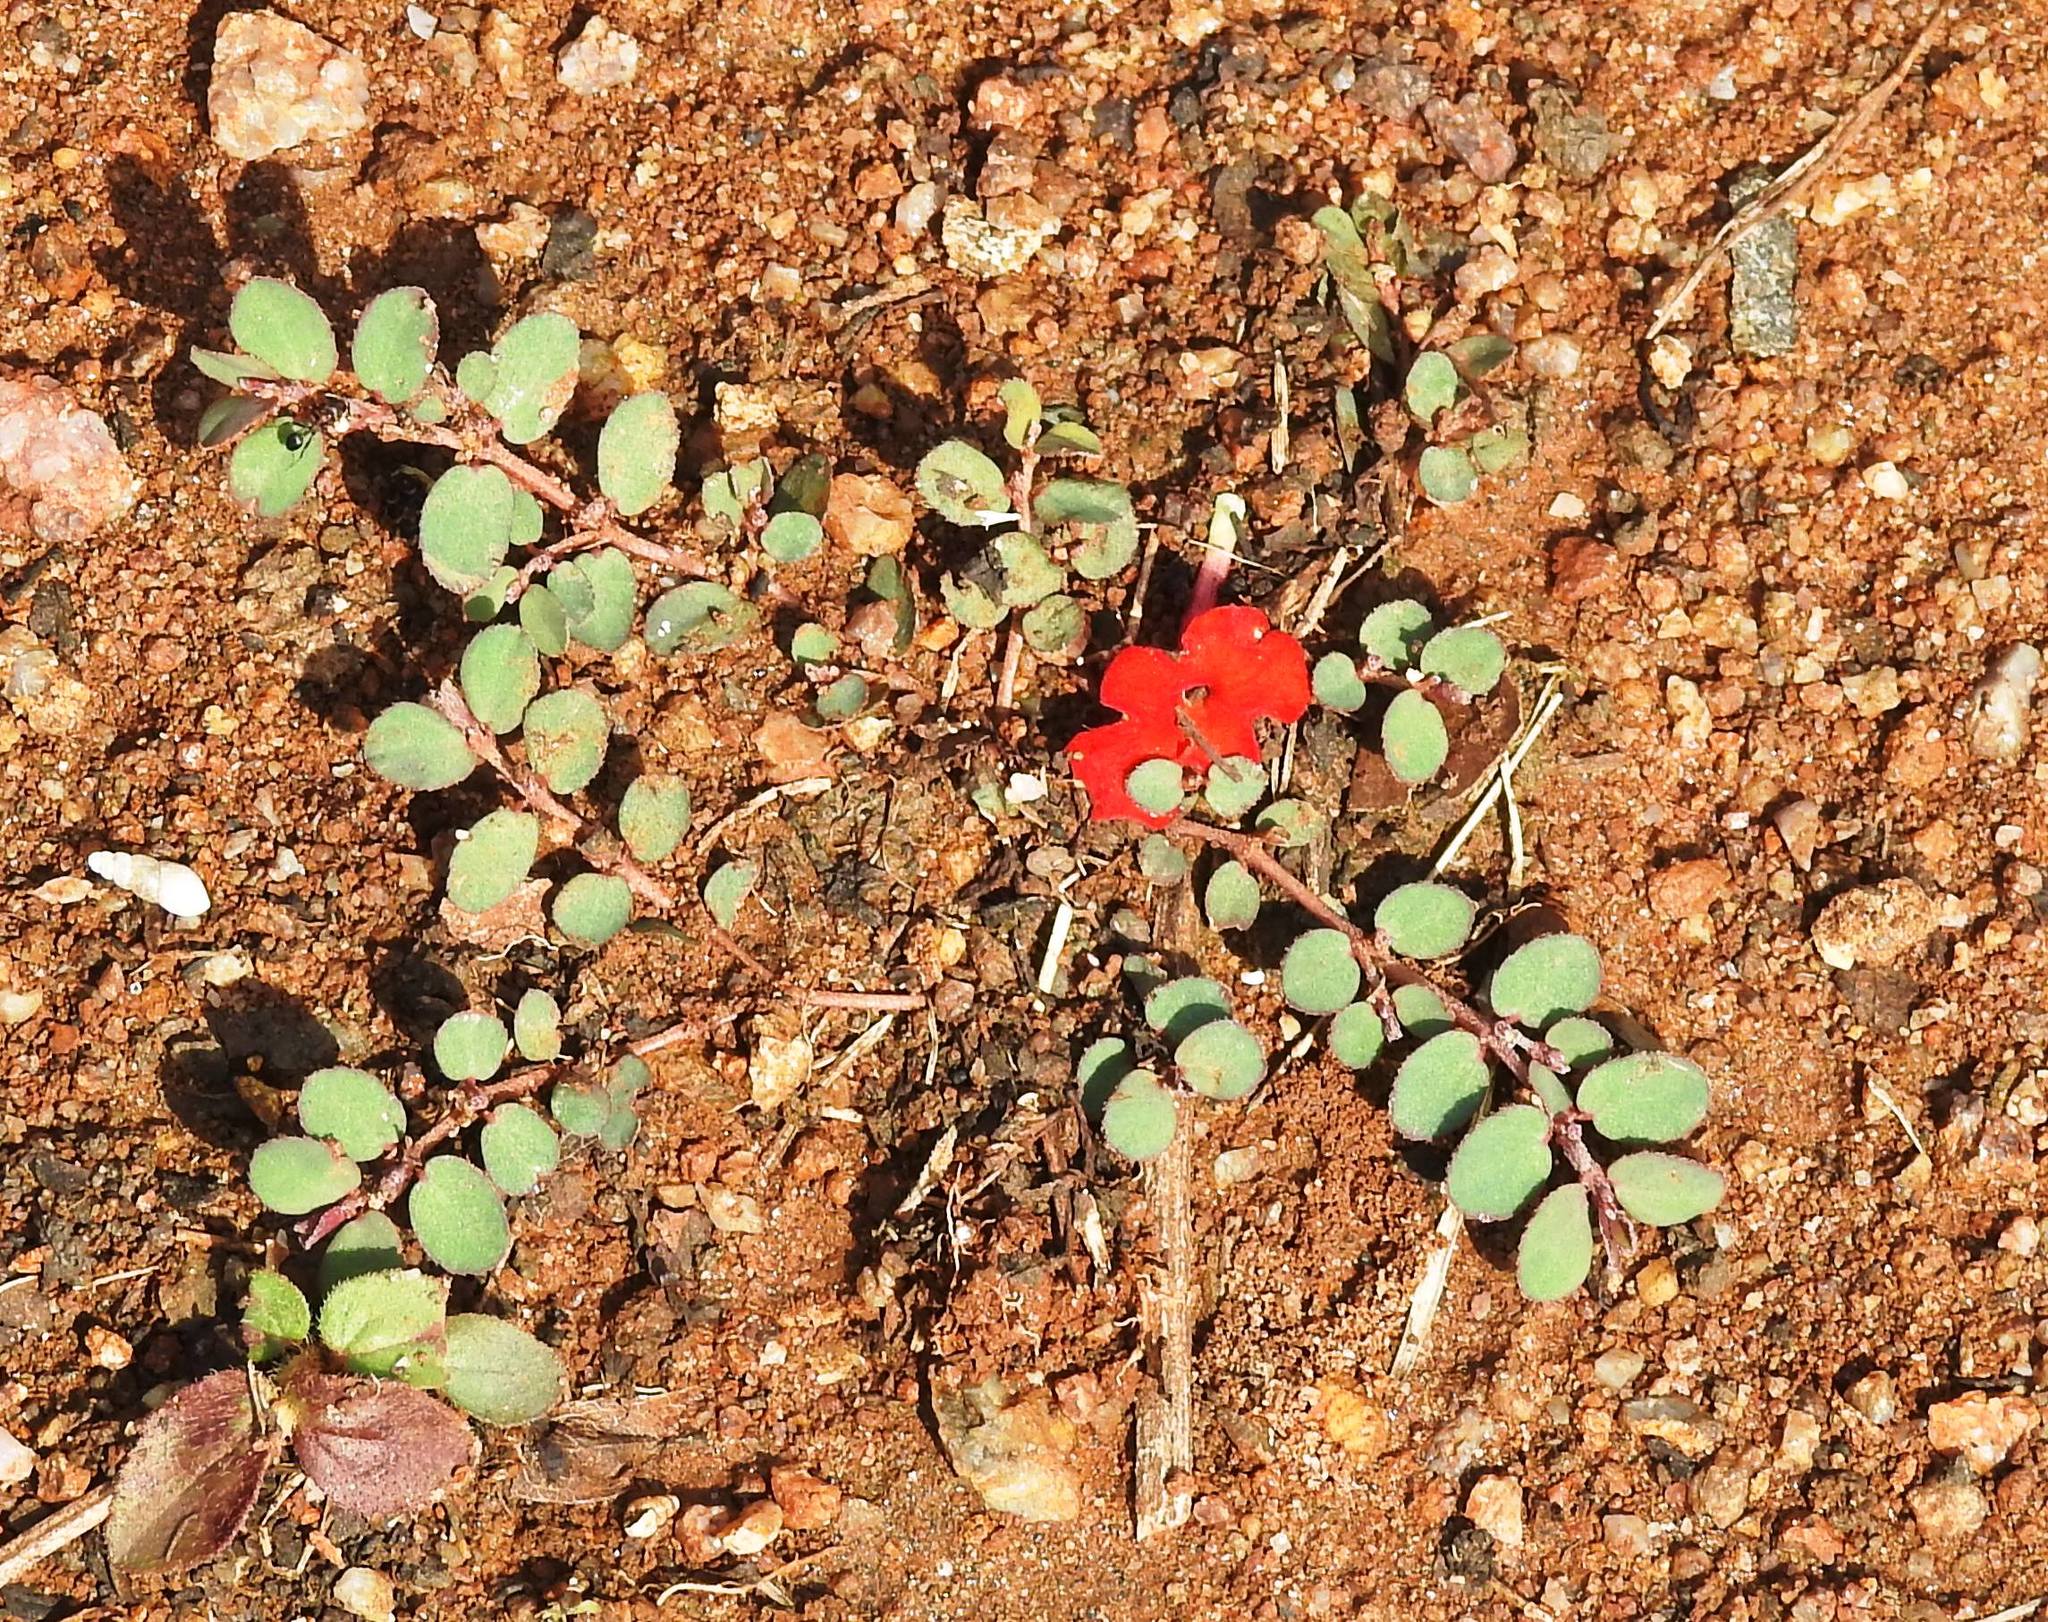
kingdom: Plantae
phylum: Tracheophyta
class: Magnoliopsida
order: Malpighiales
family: Euphorbiaceae
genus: Euphorbia
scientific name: Euphorbia prostrata
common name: Prostrate sandmat
